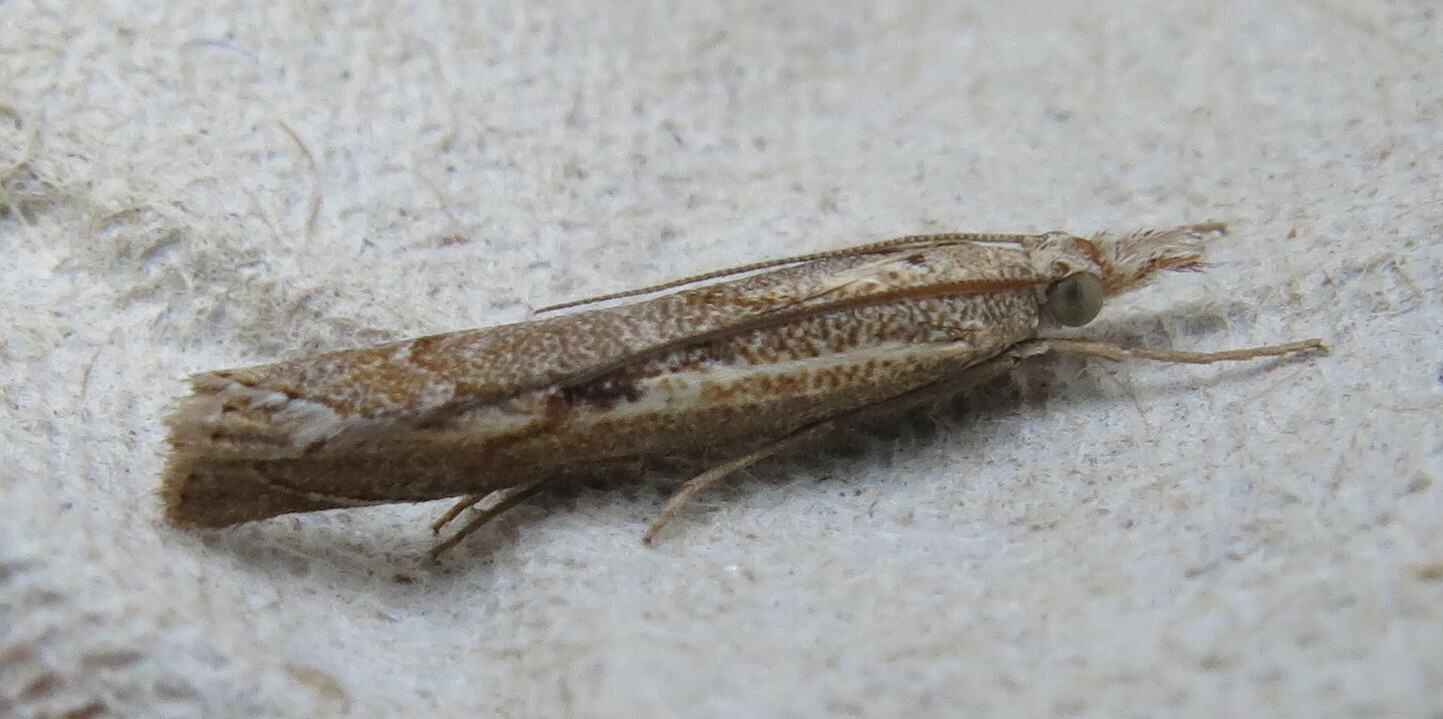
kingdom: Animalia
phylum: Arthropoda
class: Insecta
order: Lepidoptera
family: Crambidae
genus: Agriphila
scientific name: Agriphila geniculea
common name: Elbow-stripe grass-veneer
